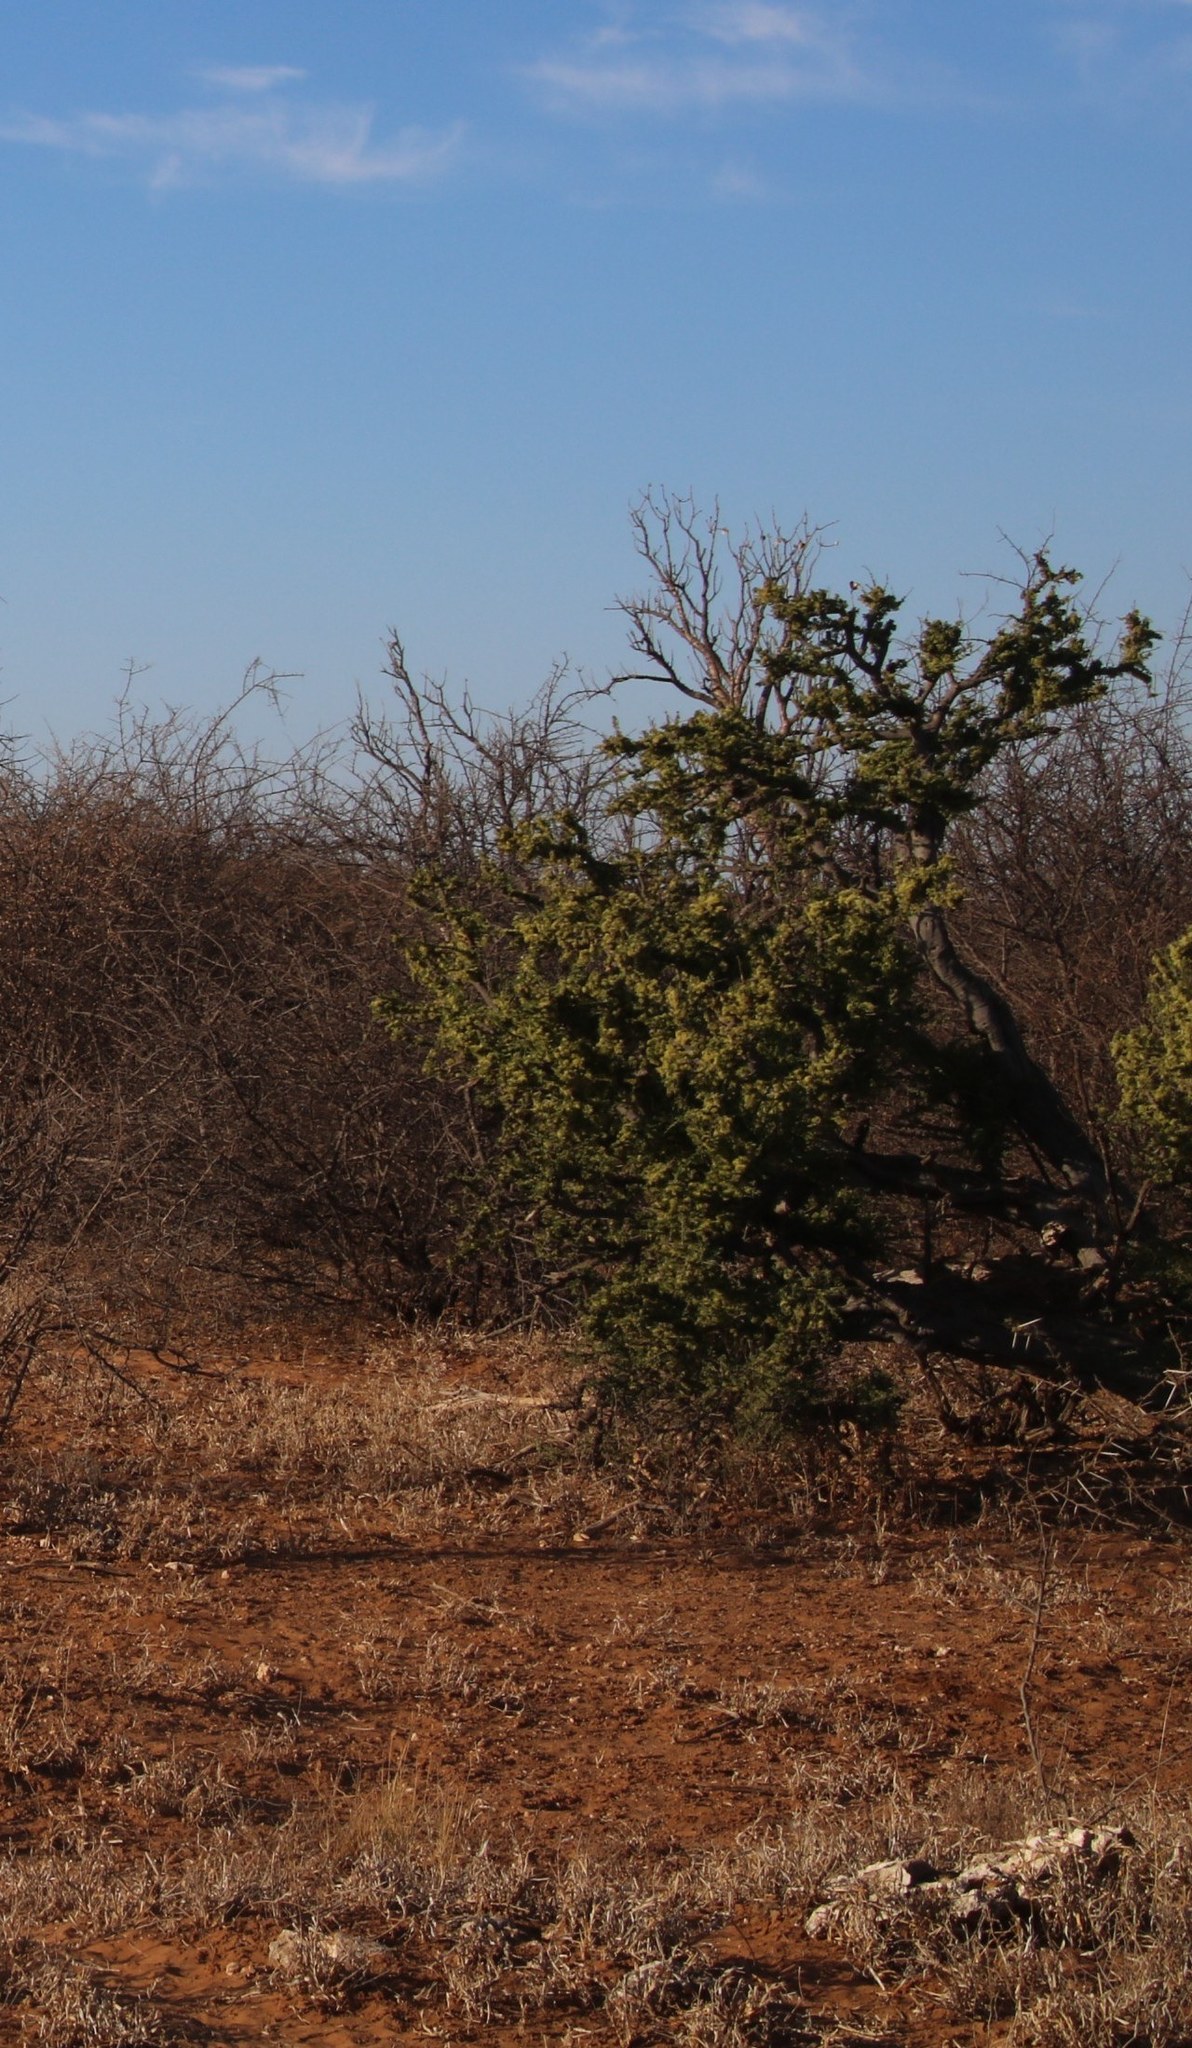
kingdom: Plantae
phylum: Tracheophyta
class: Magnoliopsida
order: Brassicales
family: Capparaceae
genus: Boscia
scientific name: Boscia foetida
